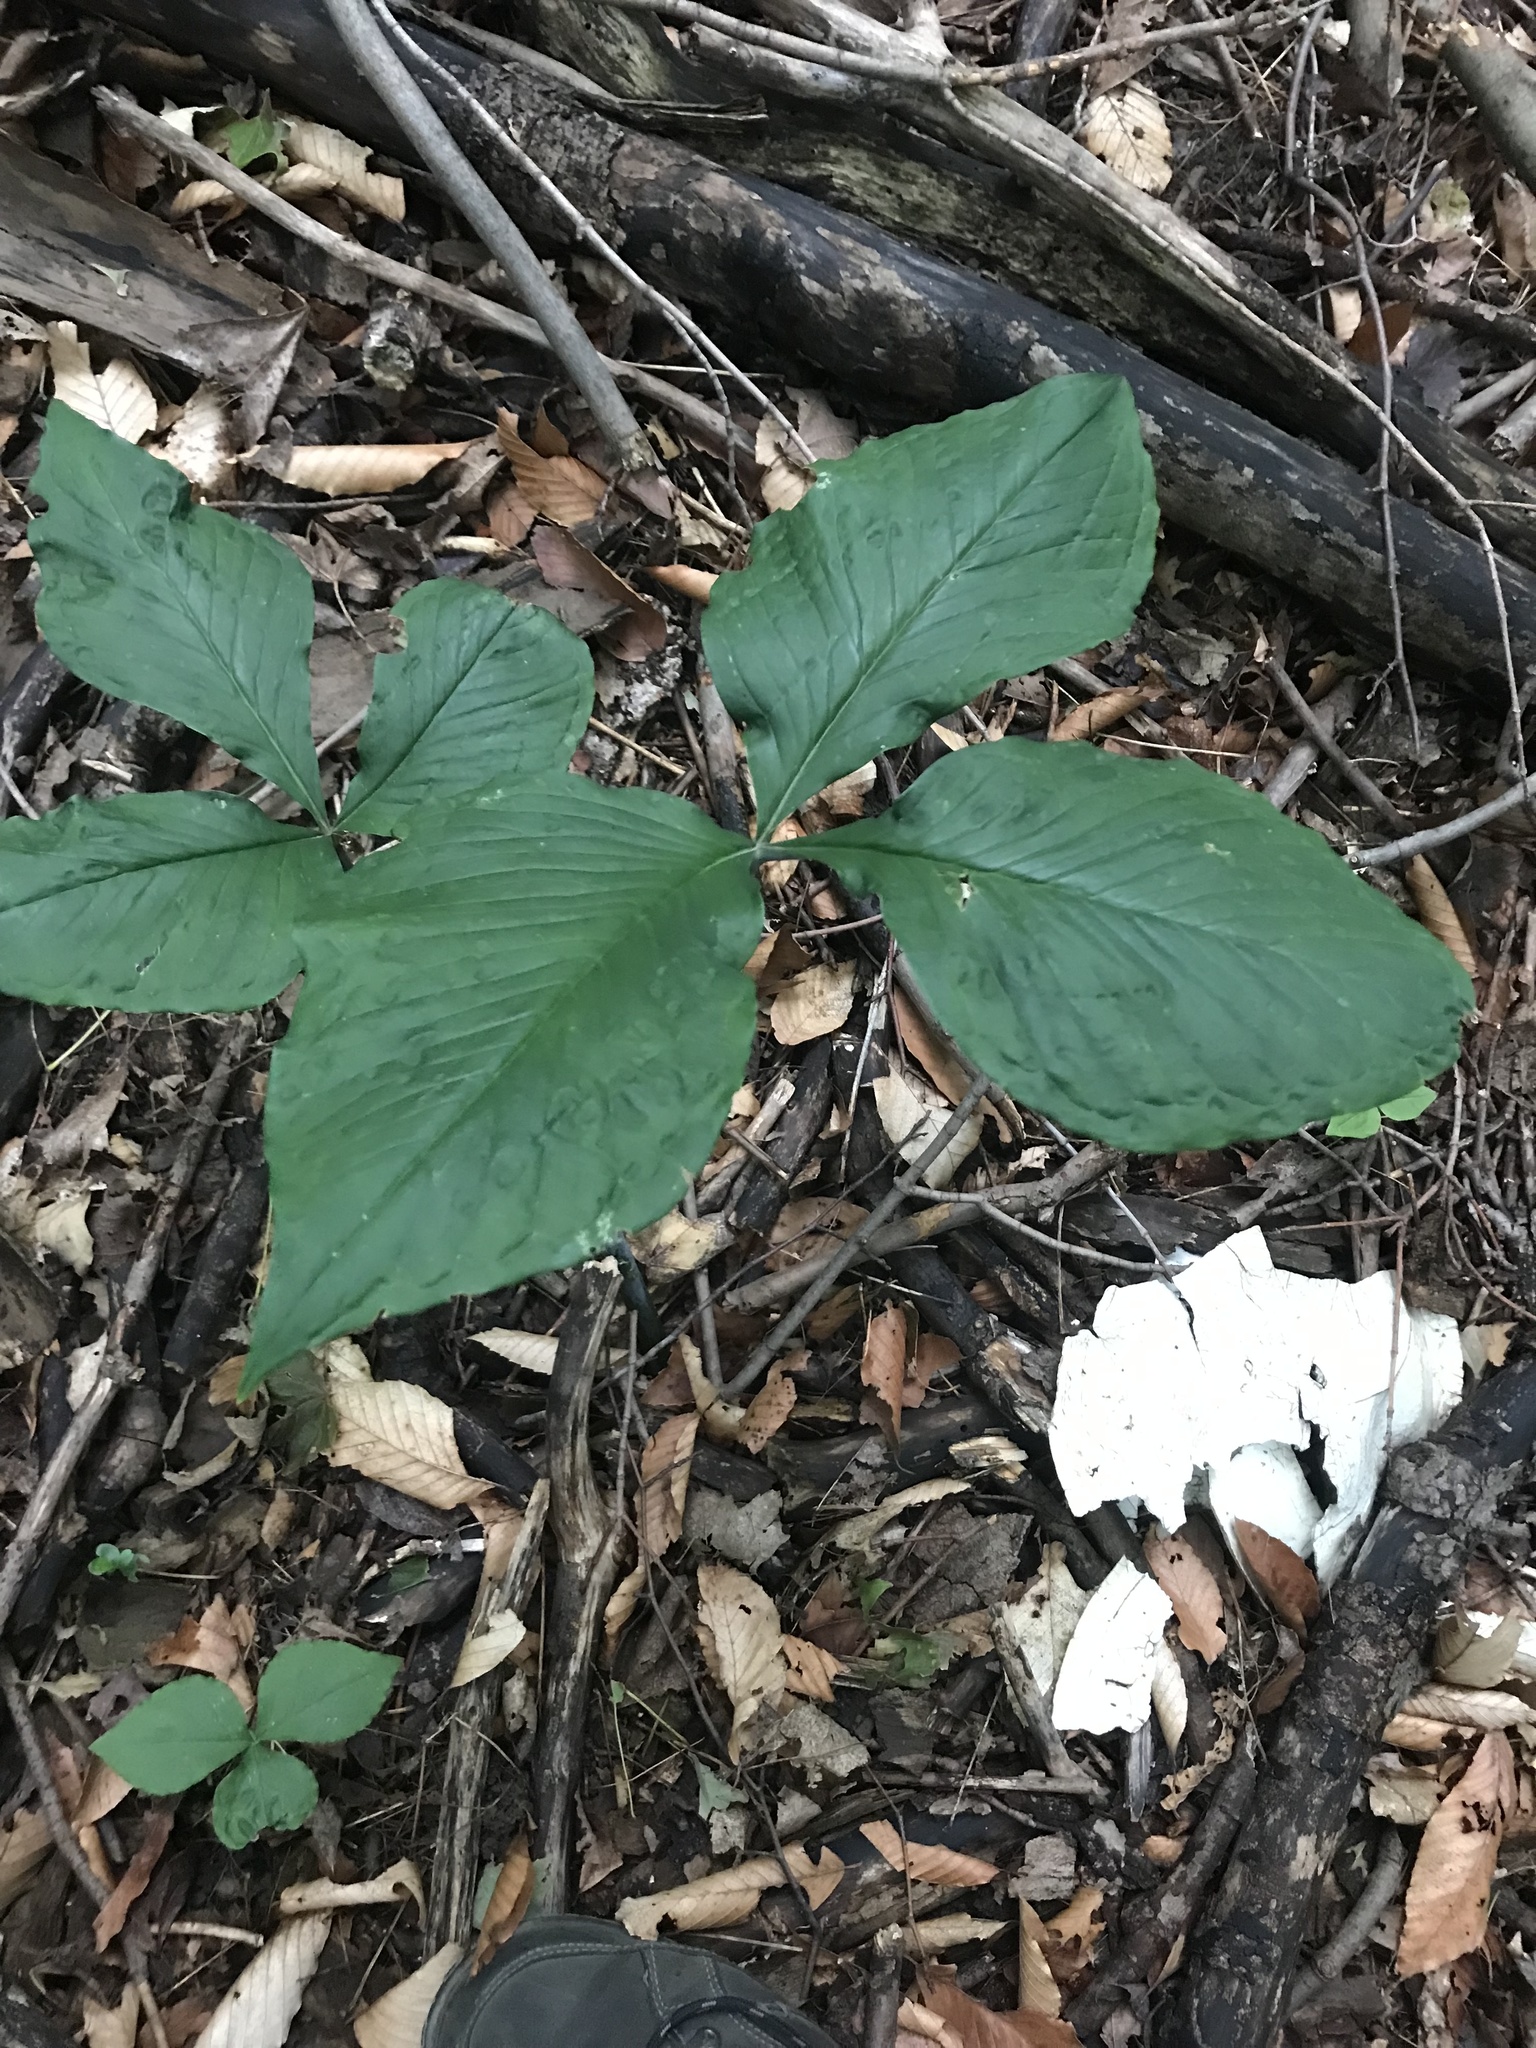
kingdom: Plantae
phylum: Tracheophyta
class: Liliopsida
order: Alismatales
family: Araceae
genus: Arisaema
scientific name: Arisaema triphyllum
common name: Jack-in-the-pulpit
